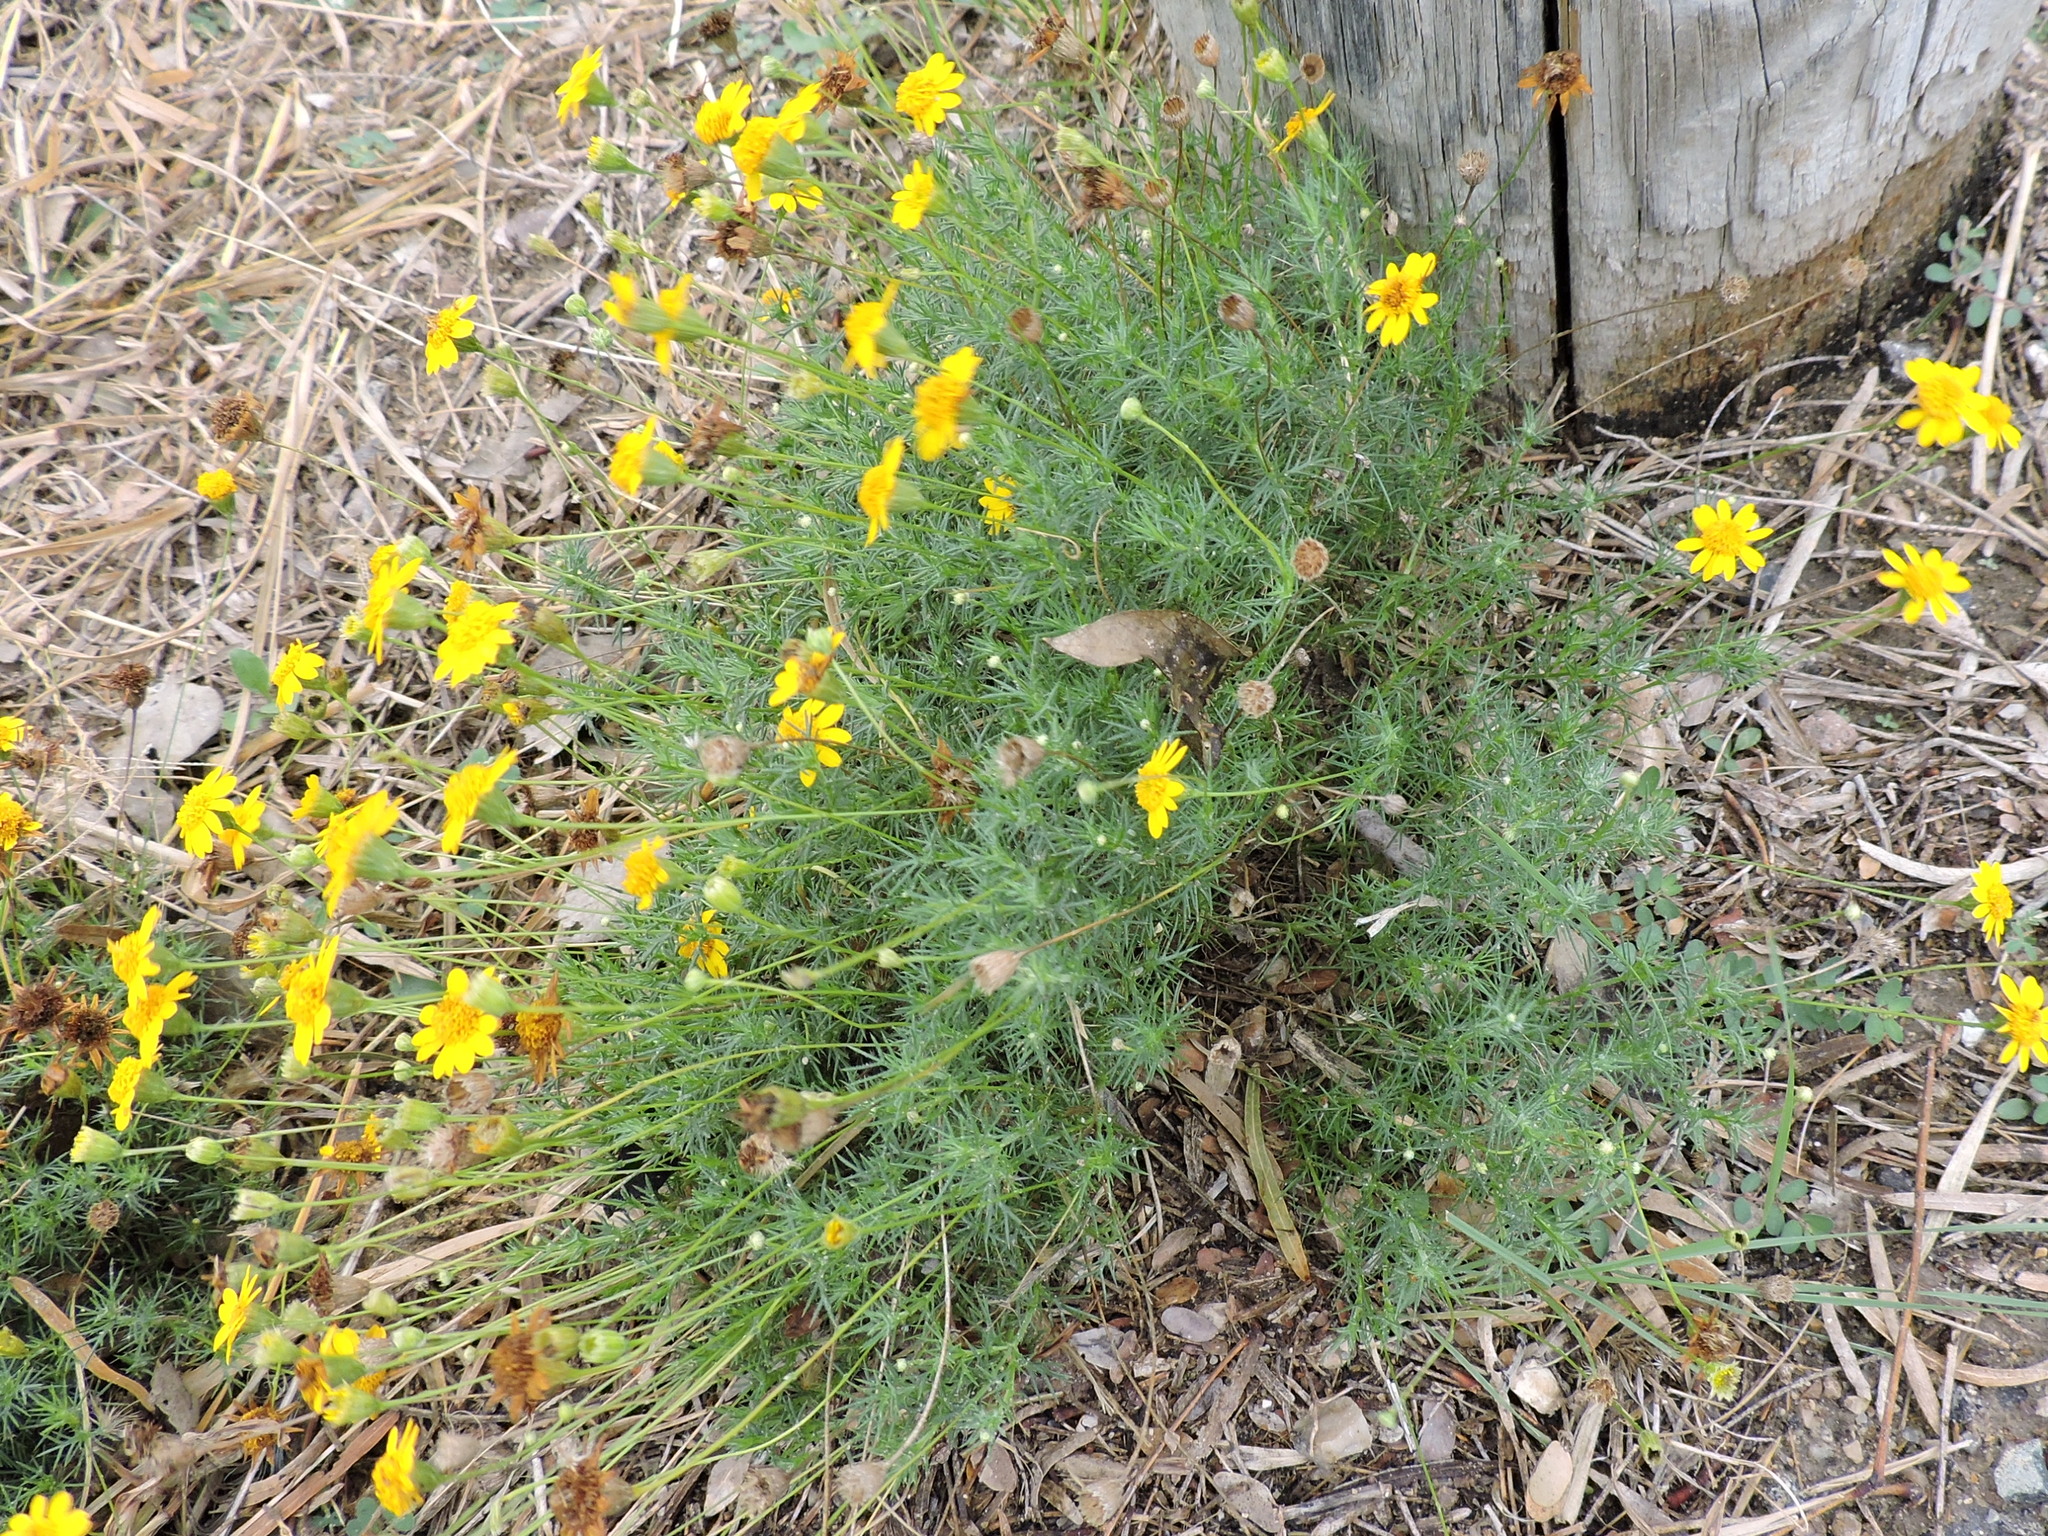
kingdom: Plantae
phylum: Tracheophyta
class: Magnoliopsida
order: Asterales
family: Asteraceae
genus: Thymophylla
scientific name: Thymophylla pentachaeta
